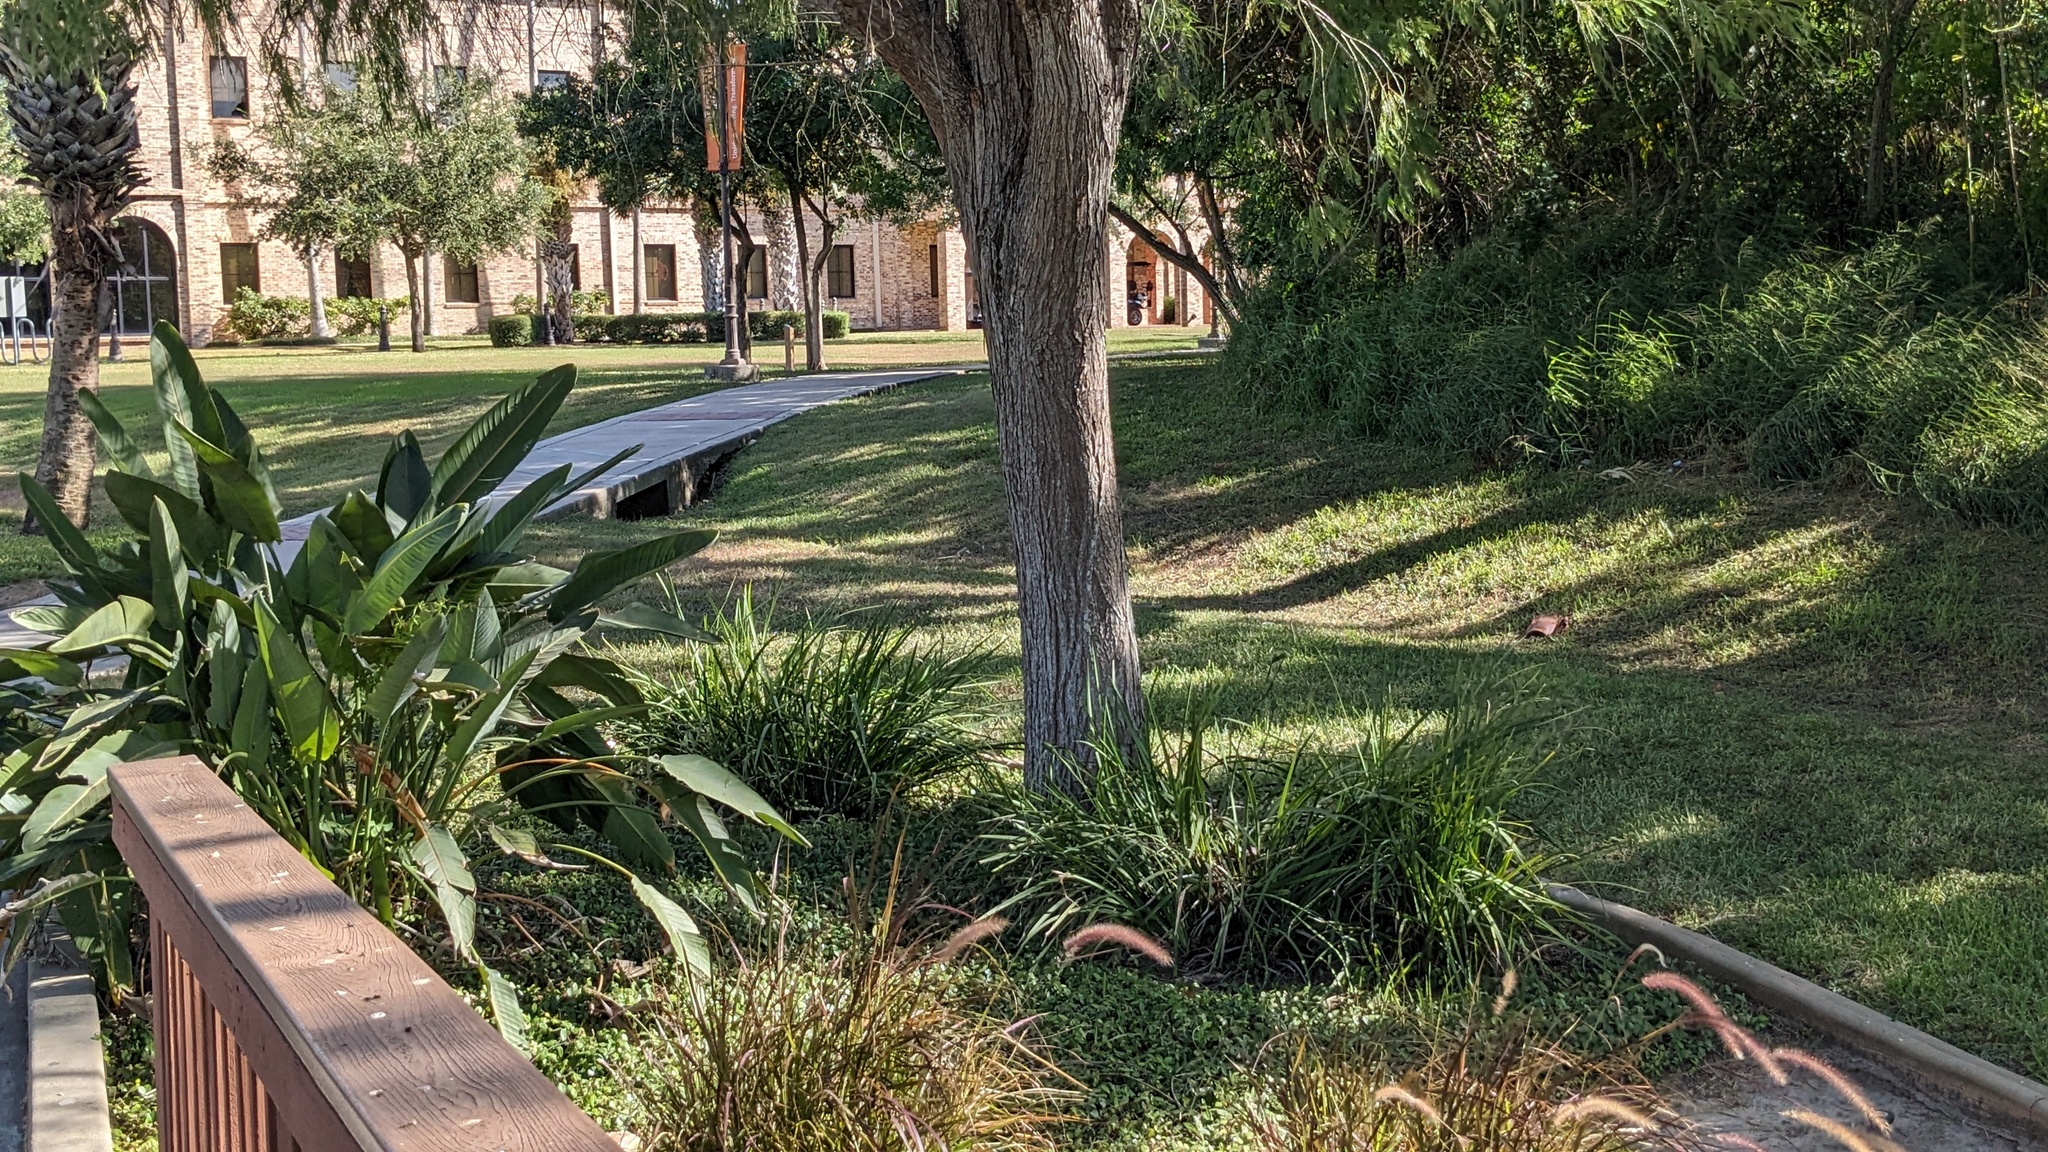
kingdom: Plantae
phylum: Tracheophyta
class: Pinopsida
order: Pinales
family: Cupressaceae
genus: Taxodium
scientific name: Taxodium mucronatum
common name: Montezume bald cypress
